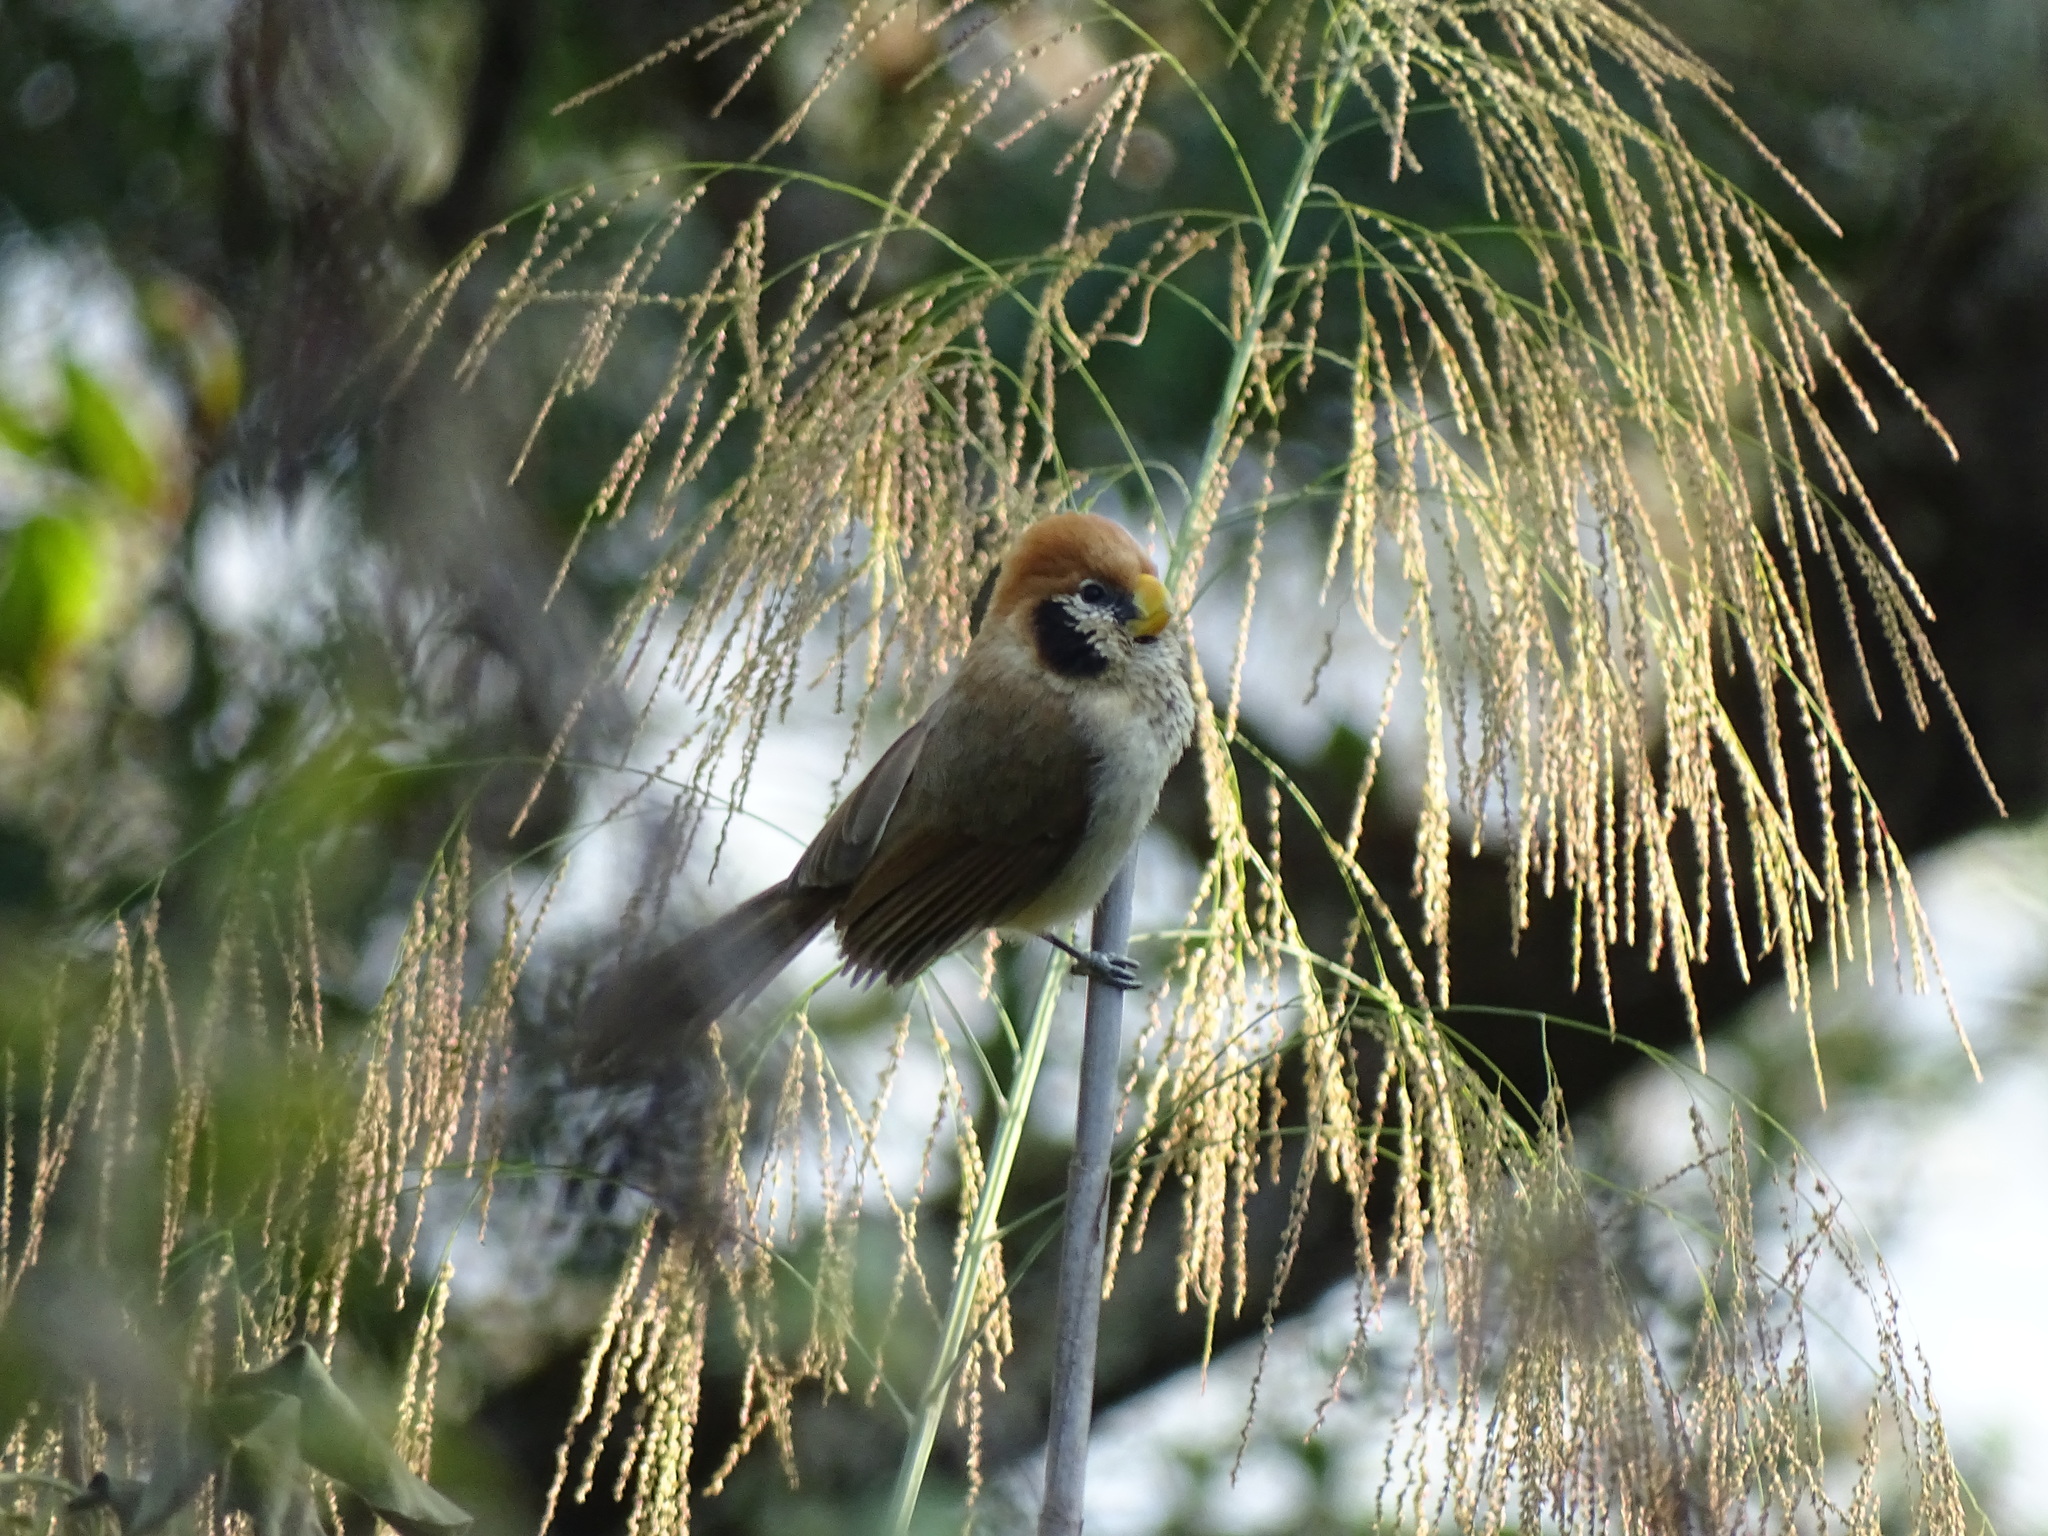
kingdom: Animalia
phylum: Chordata
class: Aves
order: Passeriformes
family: Sylviidae
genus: Paradoxornis
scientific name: Paradoxornis guttaticollis
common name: Spot-breasted parrotbill
